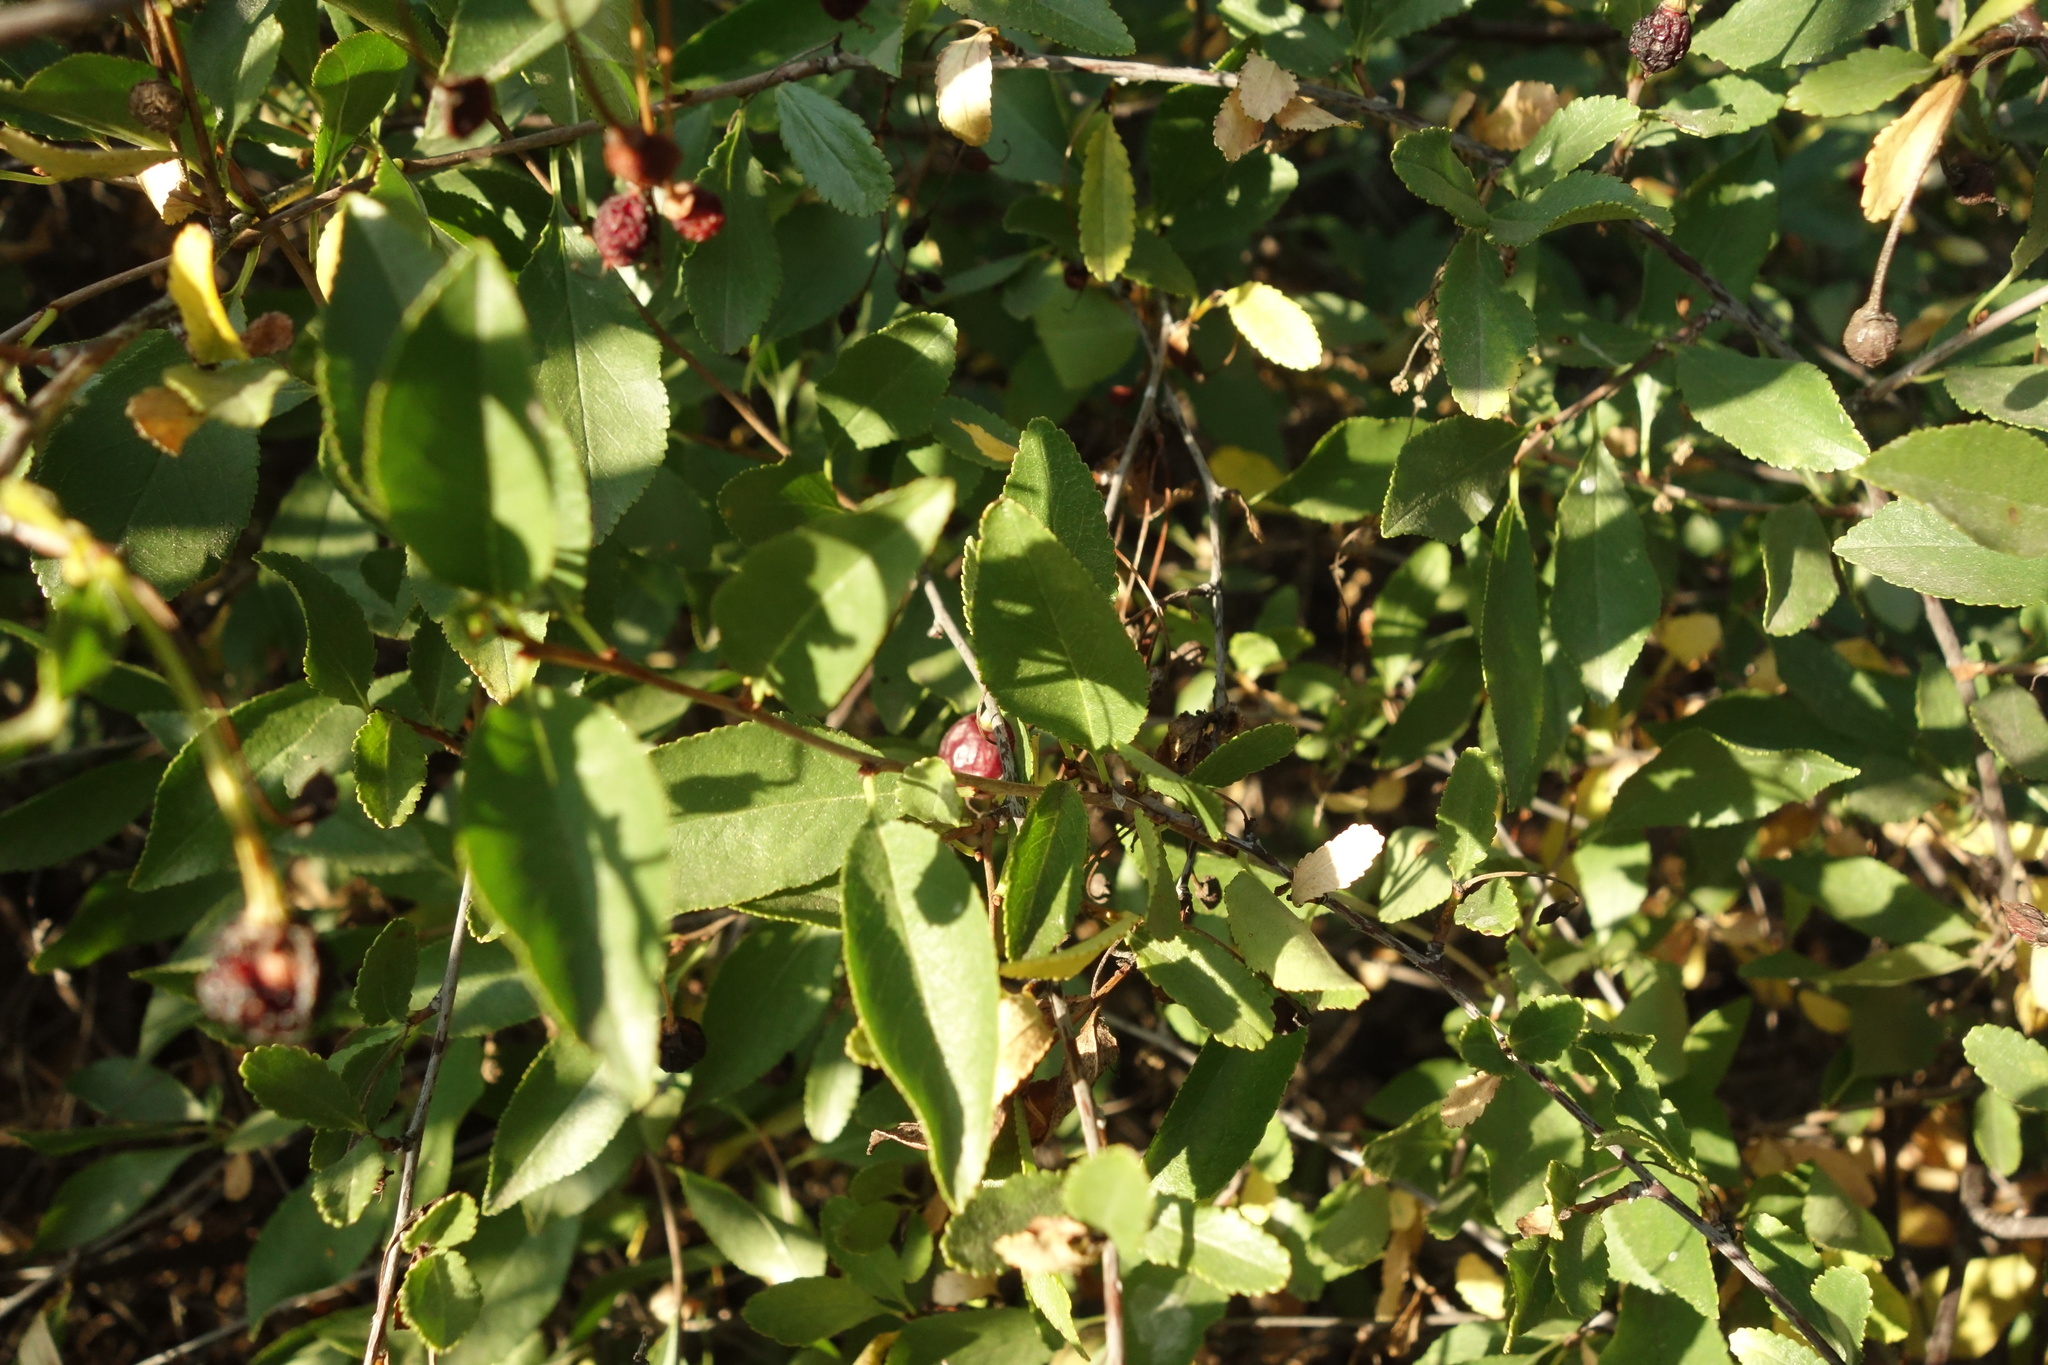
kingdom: Plantae
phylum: Tracheophyta
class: Magnoliopsida
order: Rosales
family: Rosaceae
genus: Prunus
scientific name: Prunus fruticosa
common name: European dwarf cherry
